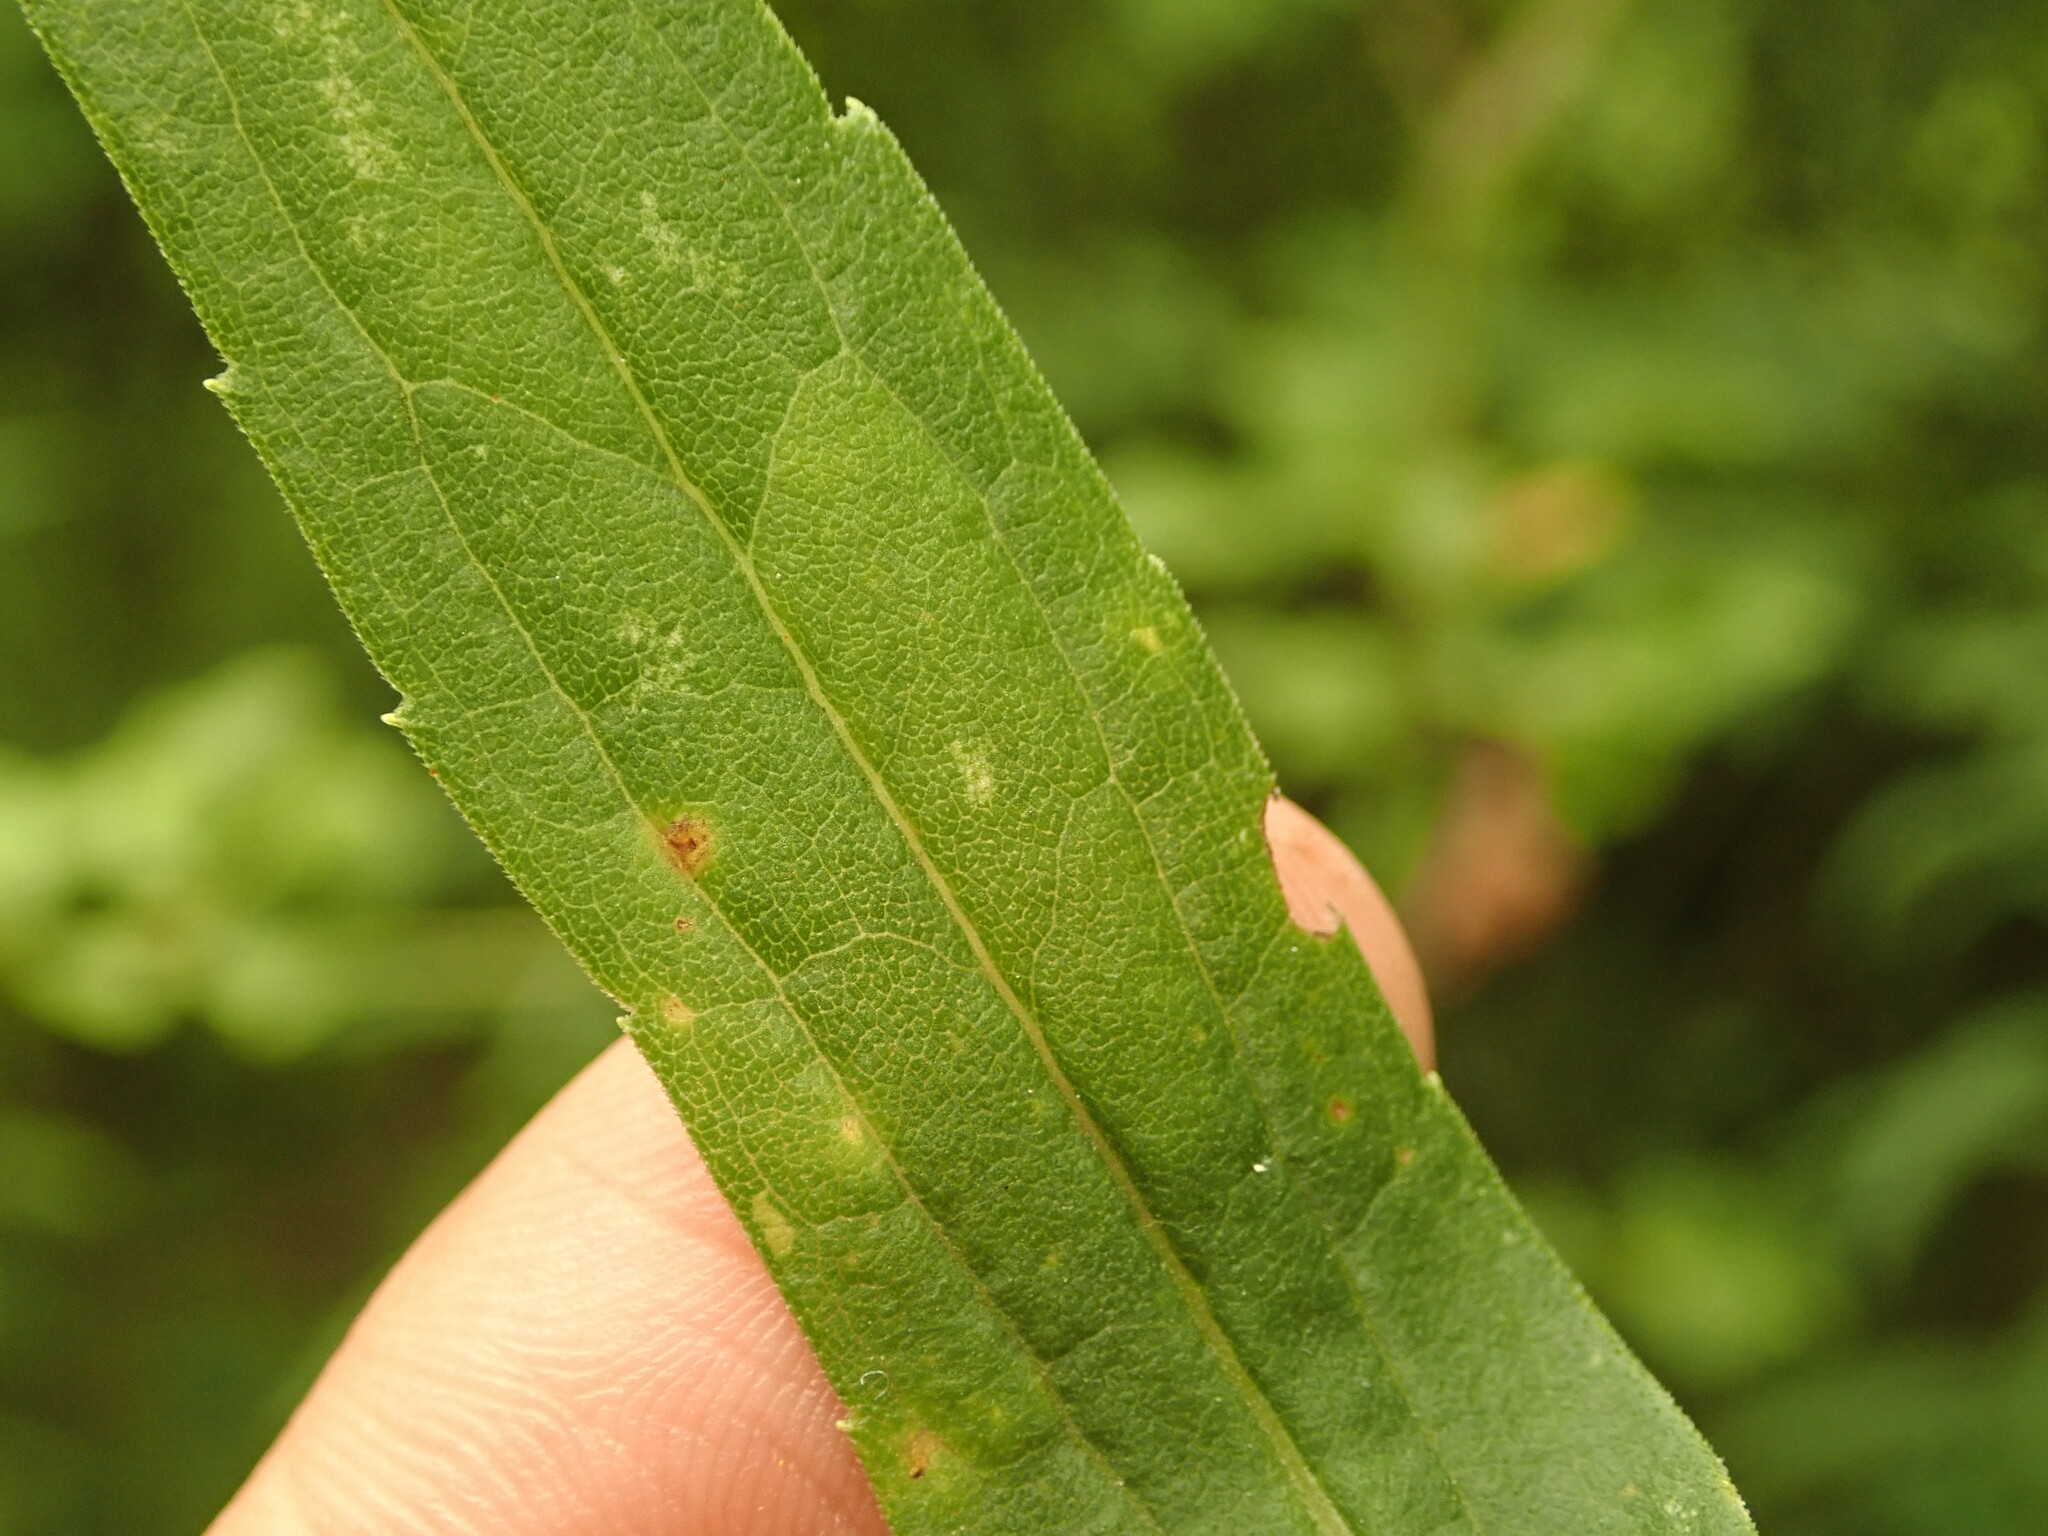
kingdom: Animalia
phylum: Arthropoda
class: Insecta
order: Lepidoptera
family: Gracillariidae
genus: Cremastobombycia
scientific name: Cremastobombycia solidaginis
